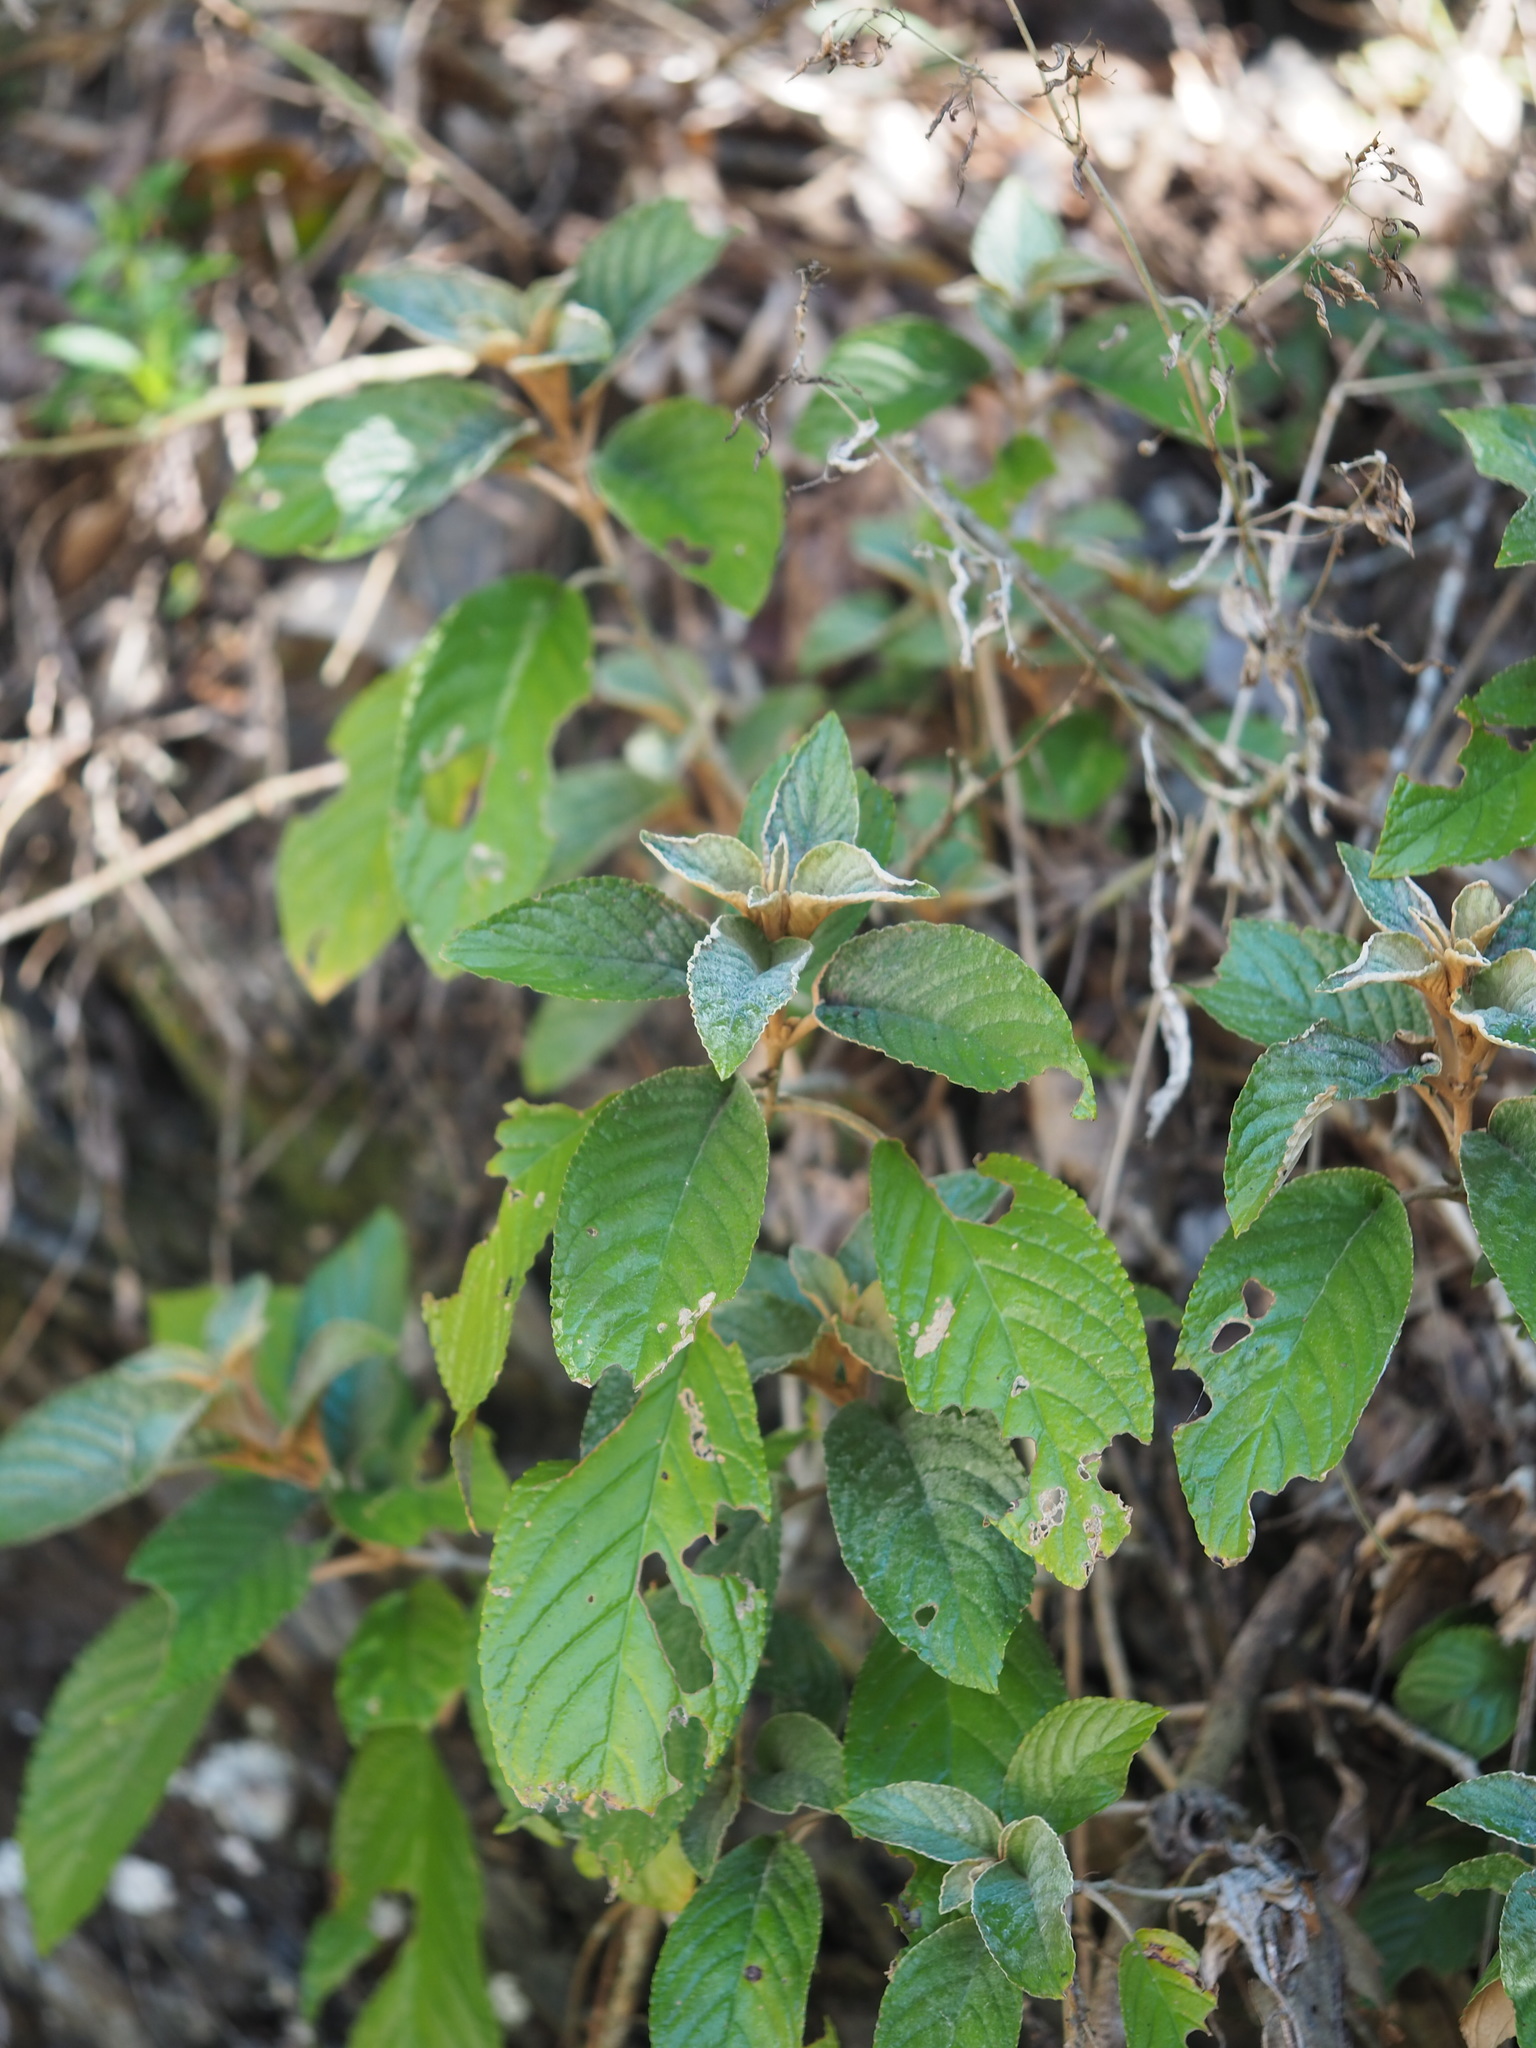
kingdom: Plantae
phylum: Tracheophyta
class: Magnoliopsida
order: Lamiales
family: Gesneriaceae
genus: Paraboea
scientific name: Paraboea swinhoei
